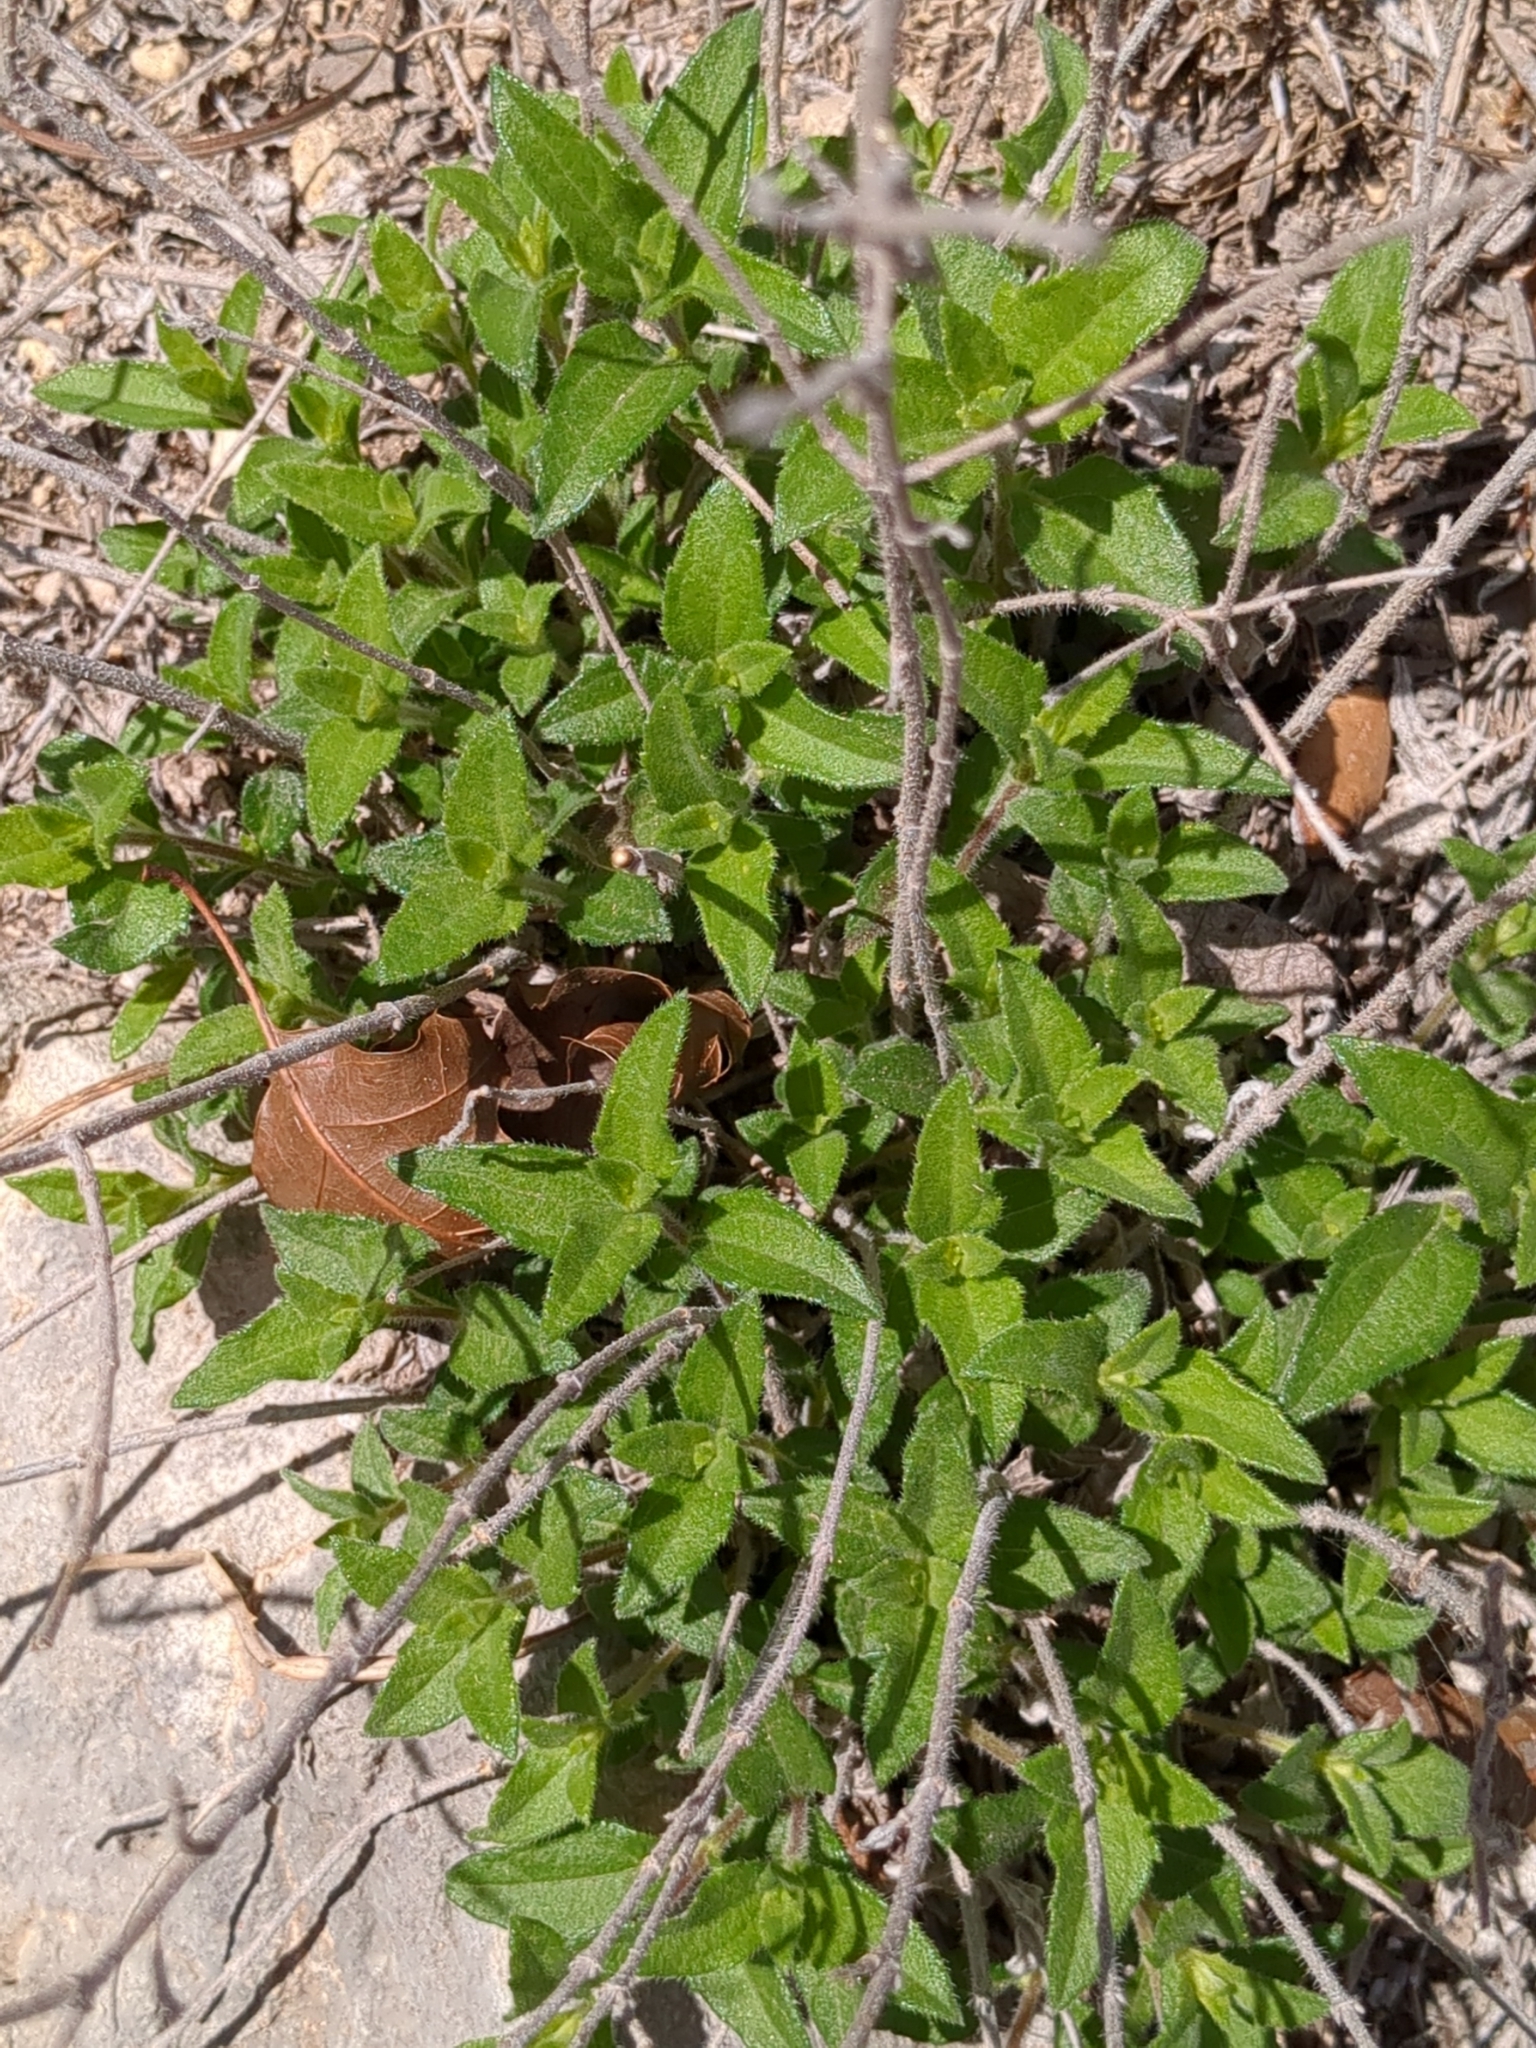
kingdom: Plantae
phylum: Tracheophyta
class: Magnoliopsida
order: Asterales
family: Asteraceae
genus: Wedelia
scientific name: Wedelia acapulcensis
